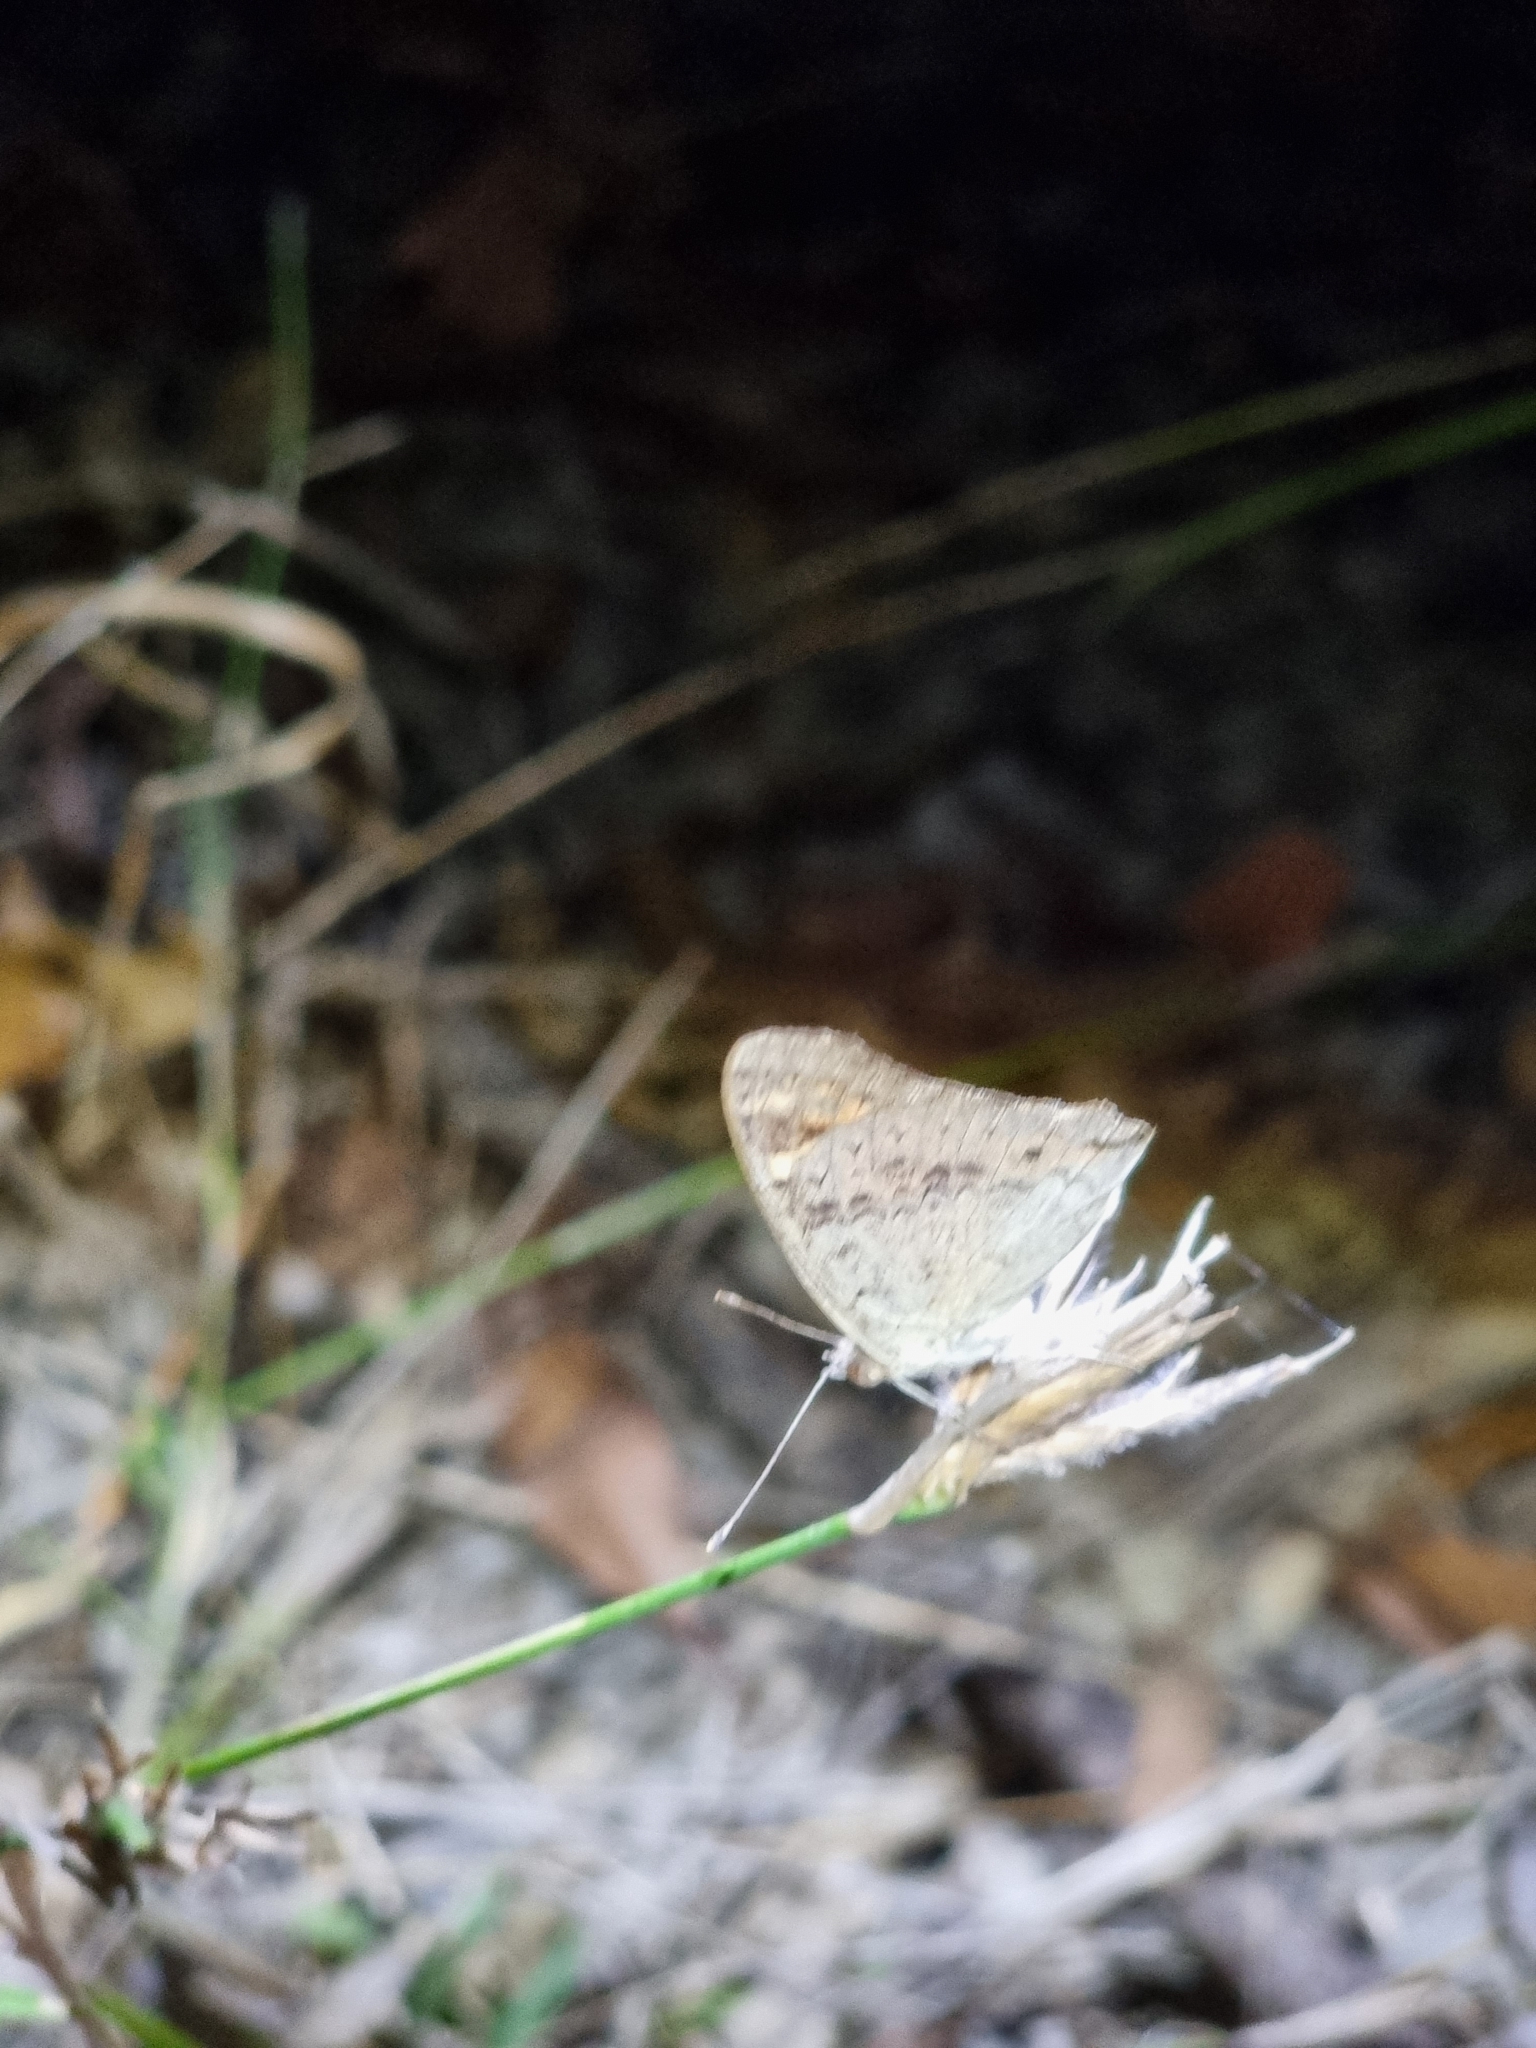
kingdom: Animalia
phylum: Arthropoda
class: Insecta
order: Lepidoptera
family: Nymphalidae
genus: Junonia
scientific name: Junonia villida
